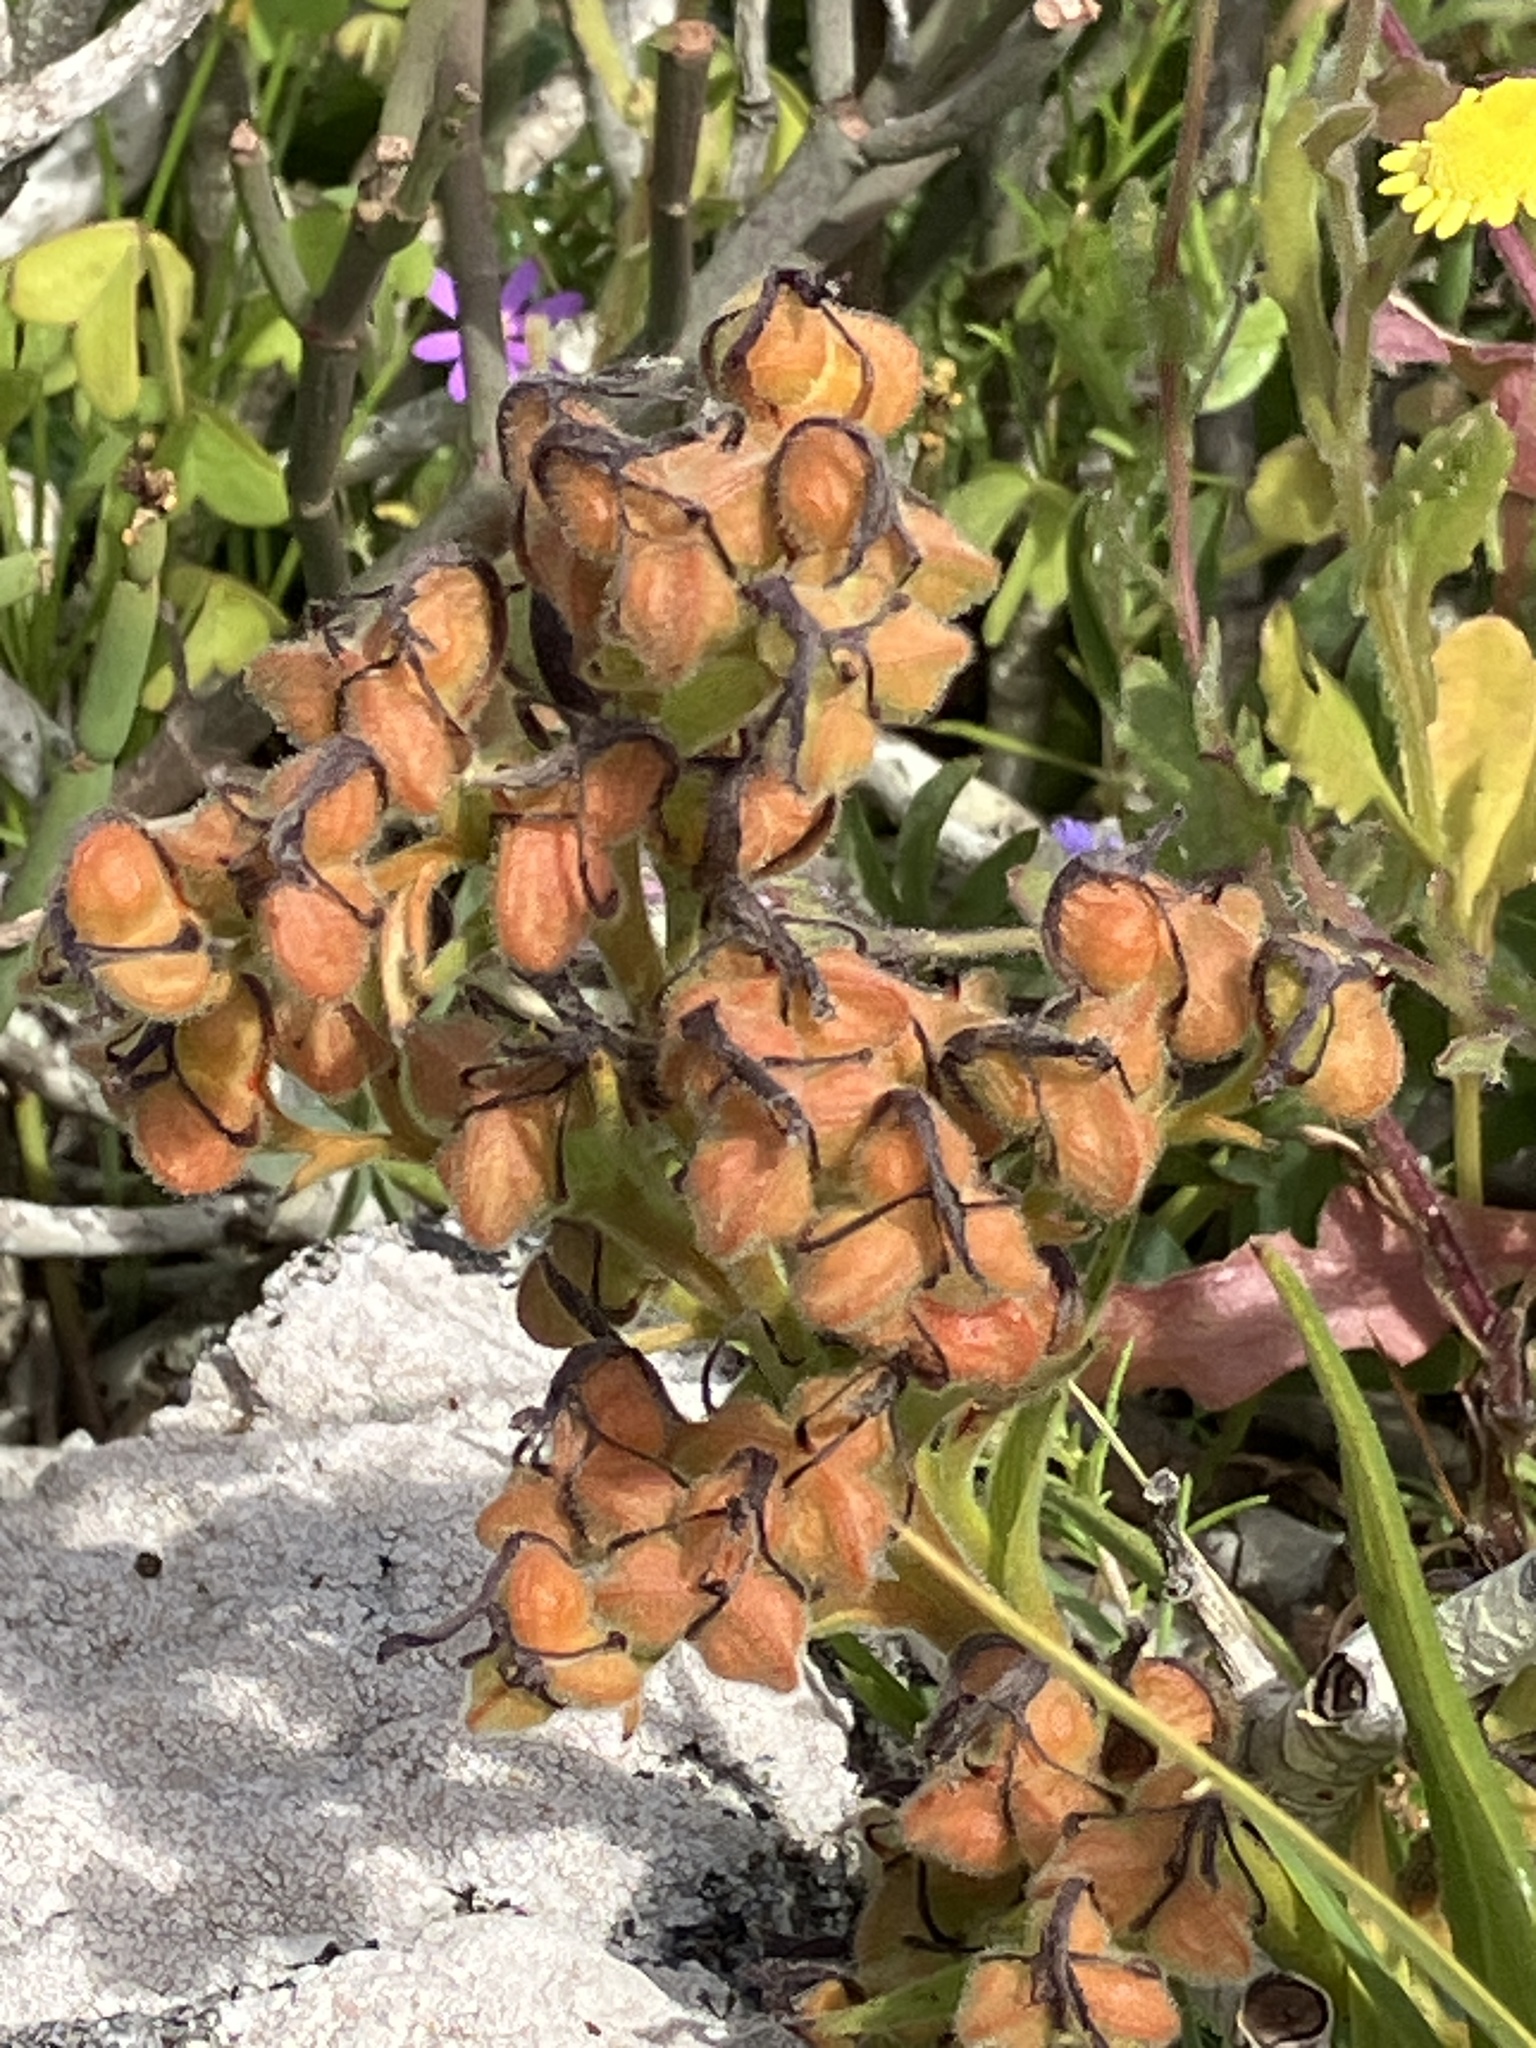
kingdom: Plantae
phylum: Tracheophyta
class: Liliopsida
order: Commelinales
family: Haemodoraceae
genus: Wachendorfia
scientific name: Wachendorfia multiflora
